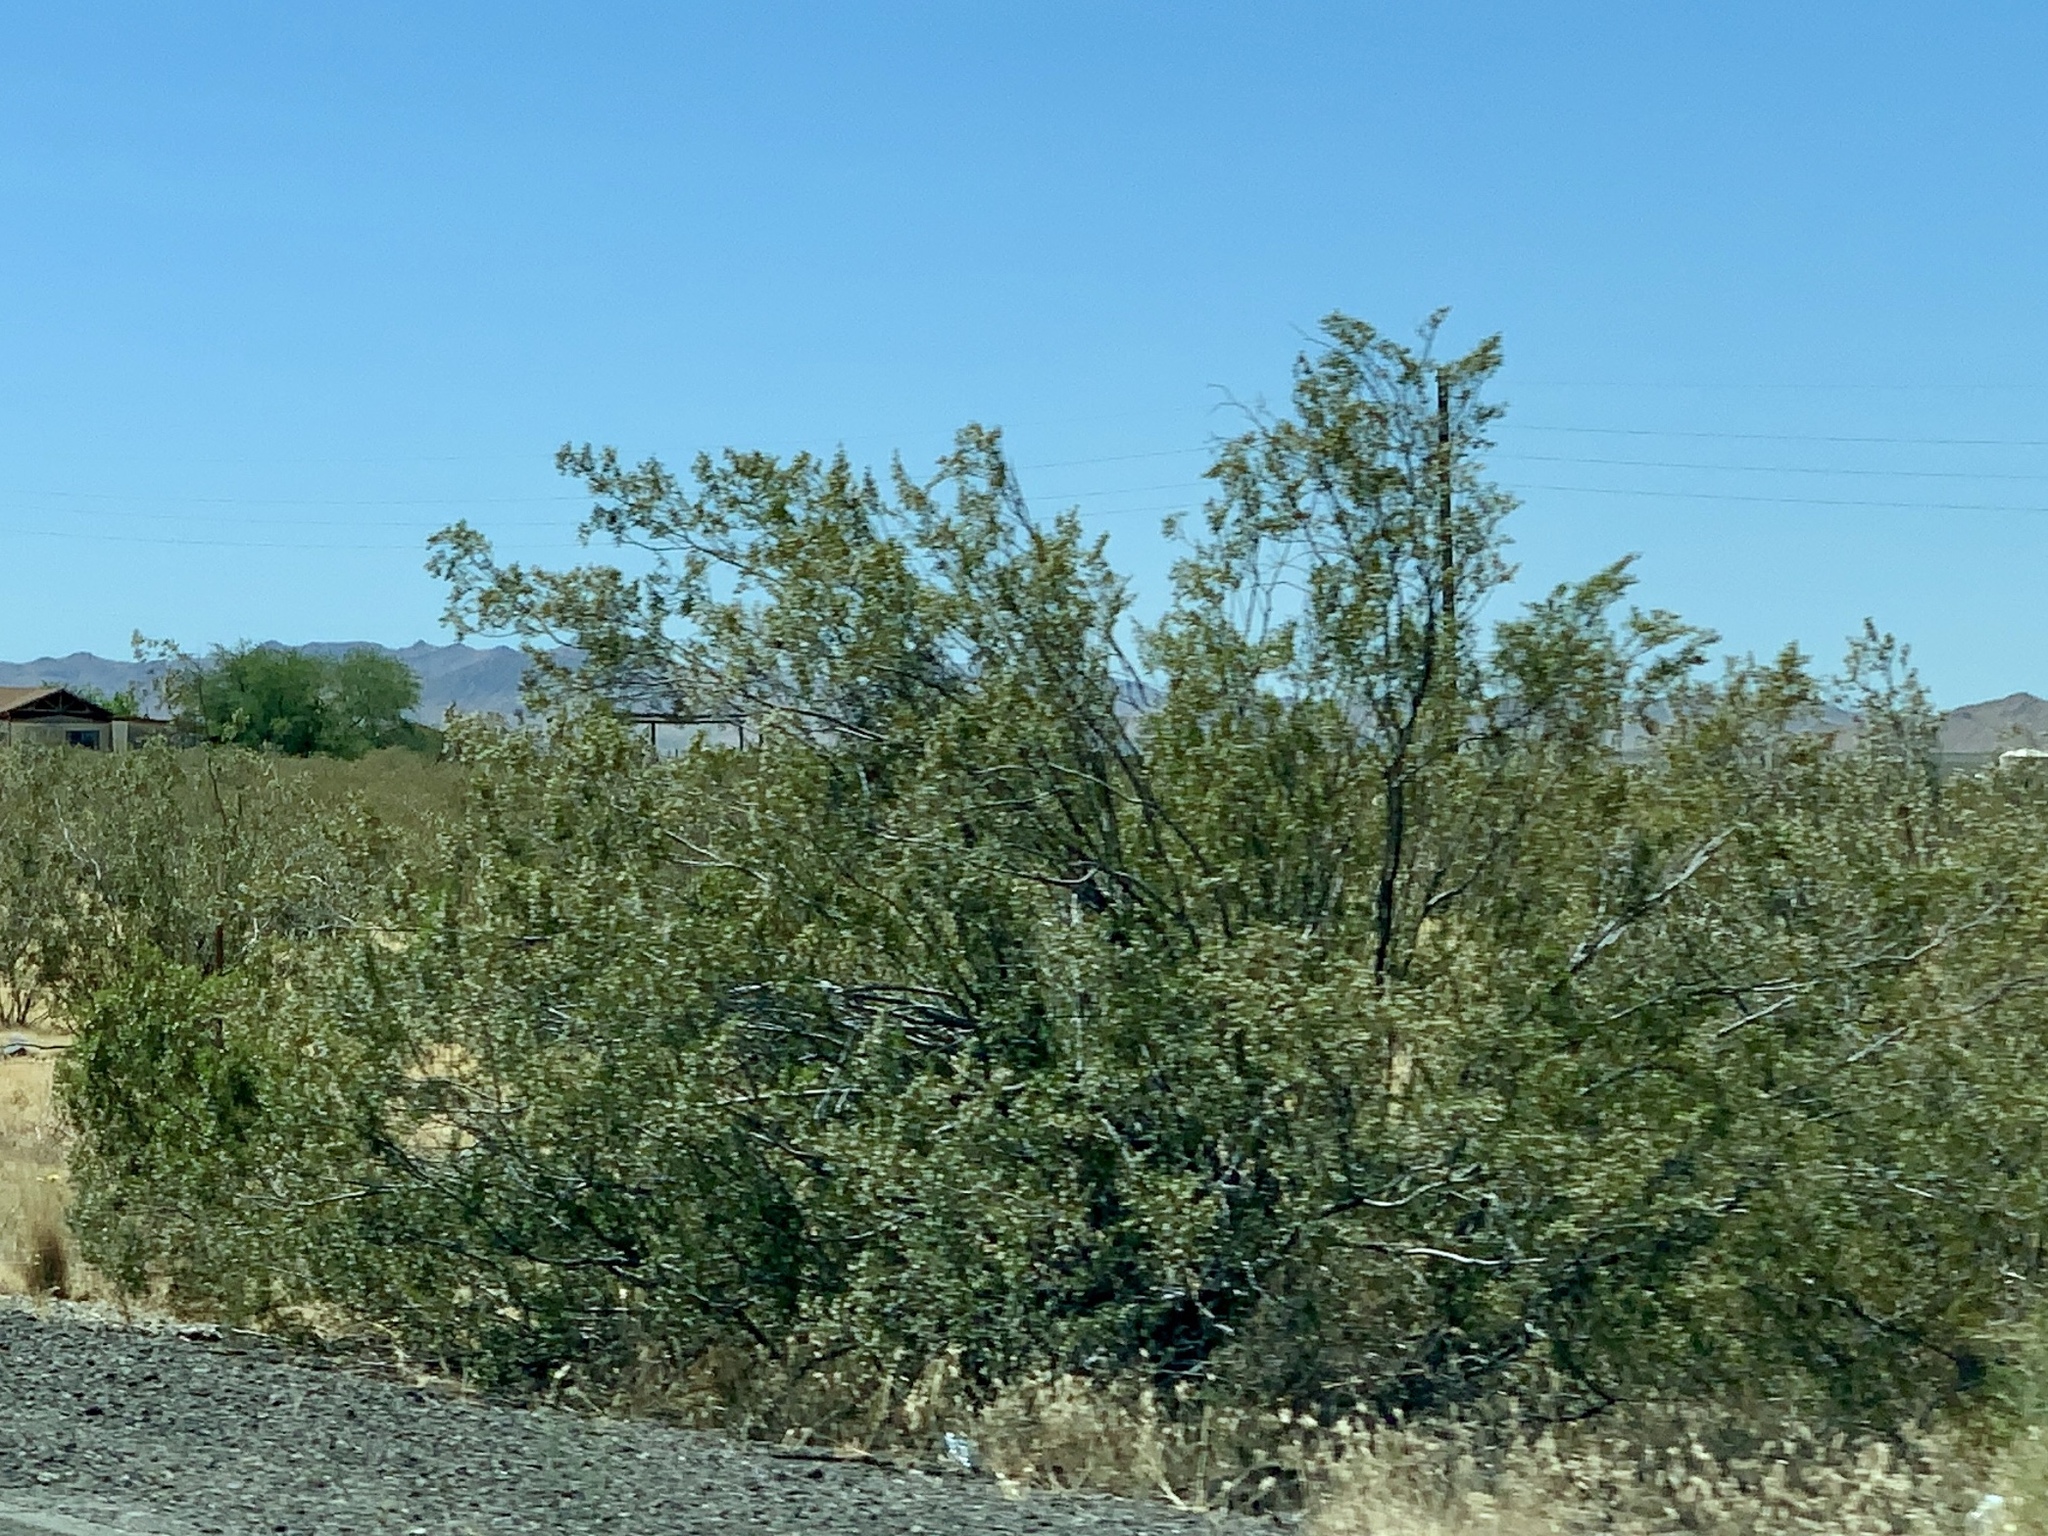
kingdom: Plantae
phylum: Tracheophyta
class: Magnoliopsida
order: Zygophyllales
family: Zygophyllaceae
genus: Larrea
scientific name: Larrea tridentata
